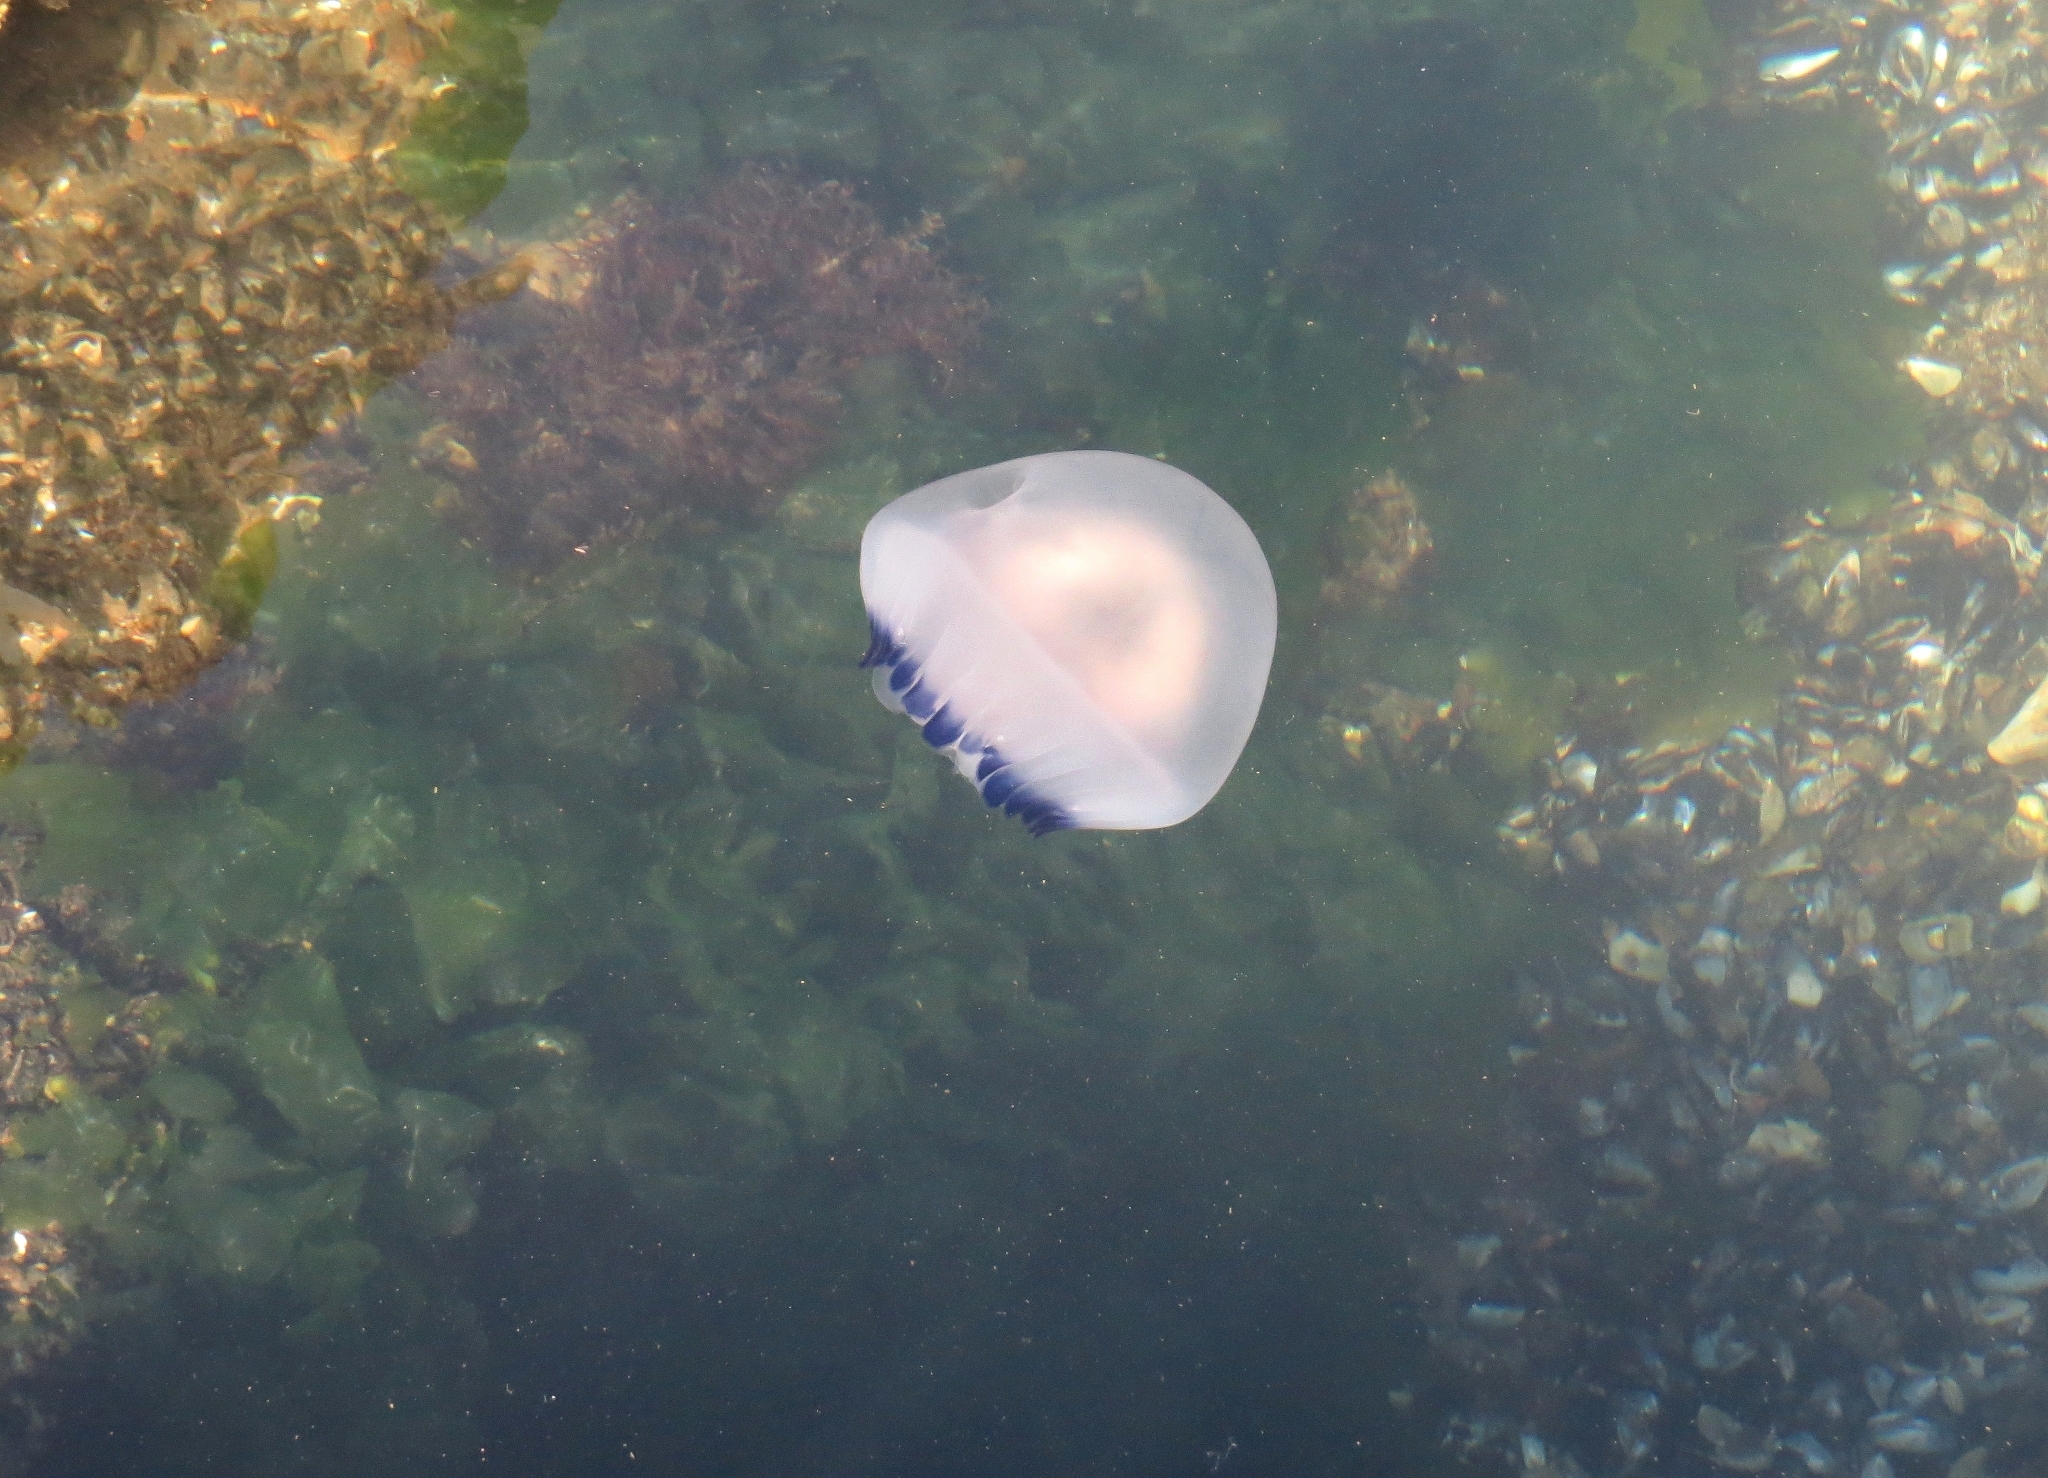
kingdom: Animalia
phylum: Cnidaria
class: Scyphozoa
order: Rhizostomeae
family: Lychnorhizidae
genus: Lychnorhiza
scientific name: Lychnorhiza lucerna
